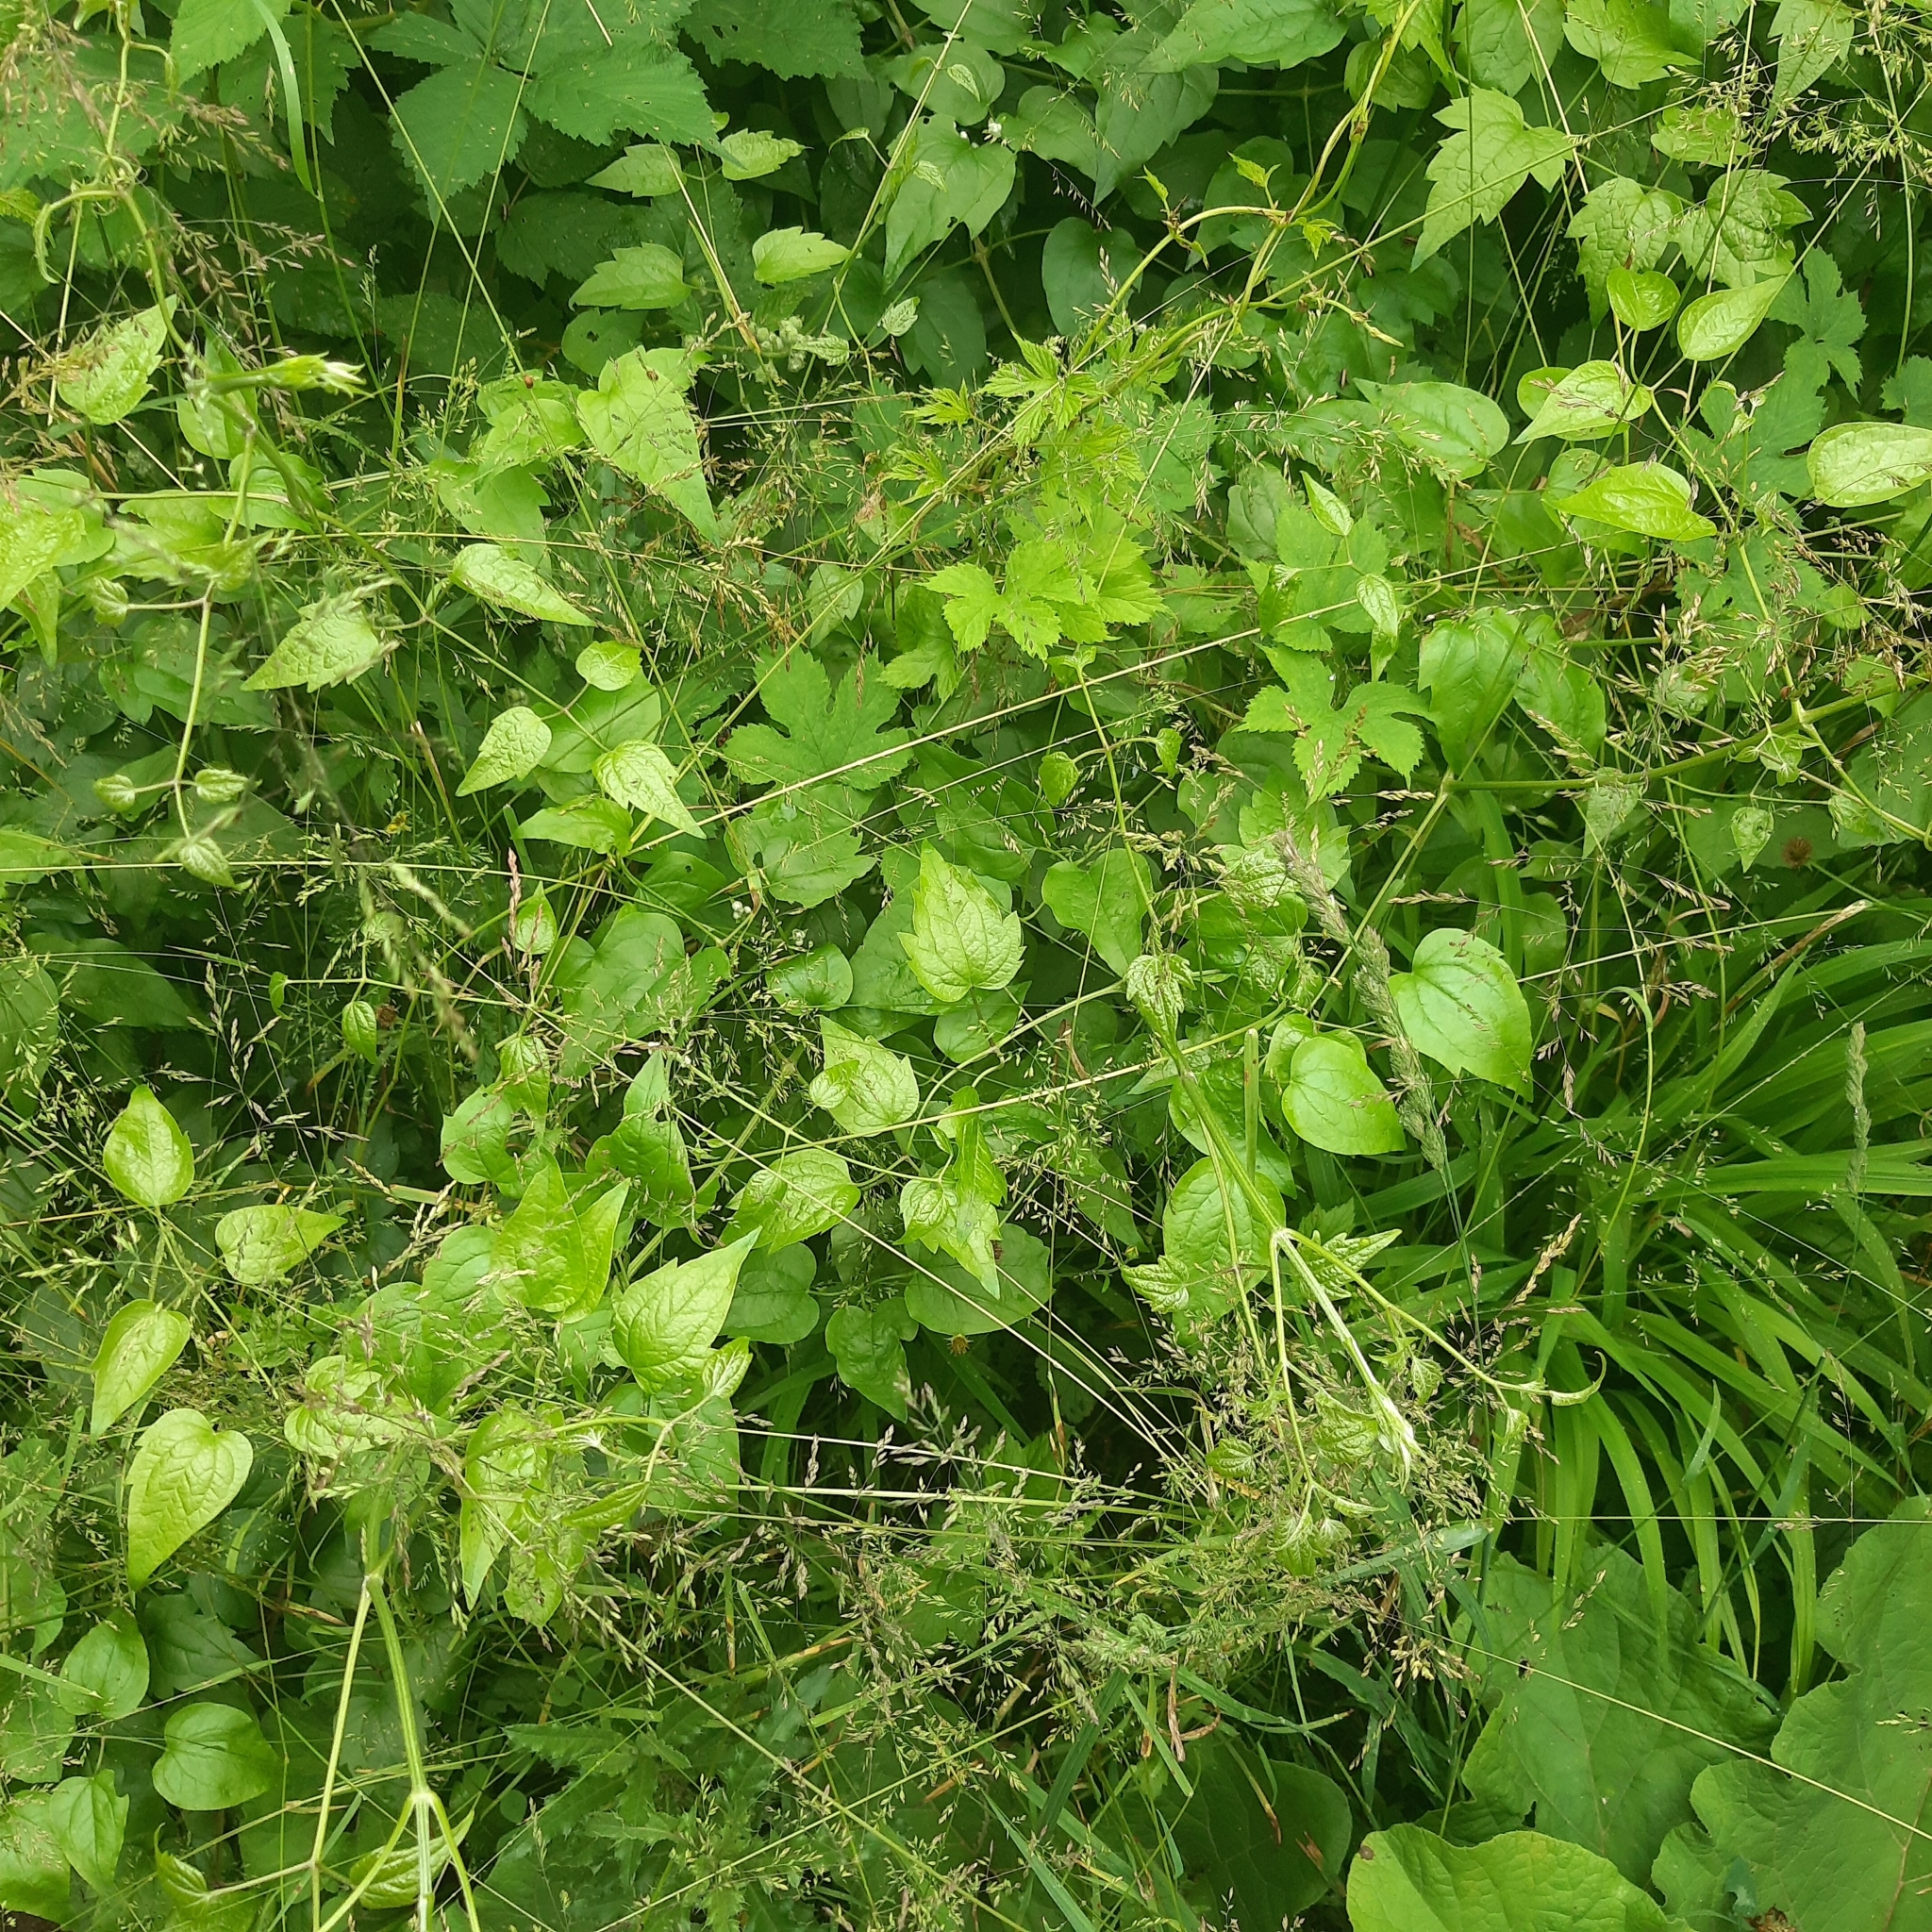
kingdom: Plantae
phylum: Tracheophyta
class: Magnoliopsida
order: Ranunculales
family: Ranunculaceae
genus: Clematis
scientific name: Clematis vitalba
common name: Evergreen clematis
